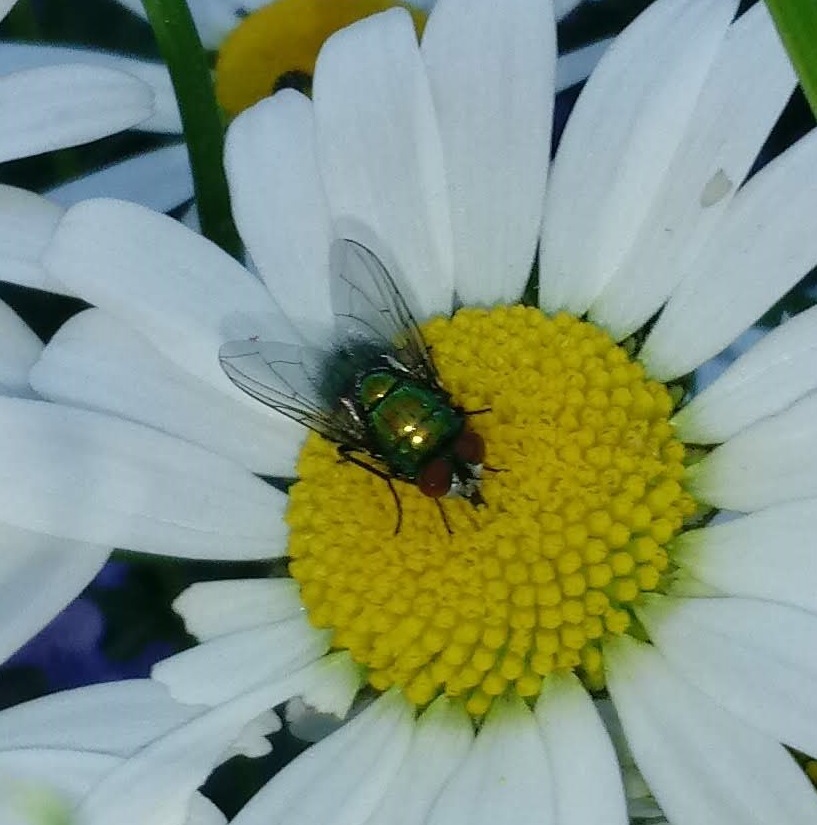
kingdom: Animalia
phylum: Arthropoda
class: Insecta
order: Diptera
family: Calliphoridae
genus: Lucilia
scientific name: Lucilia sericata
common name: Blow fly
